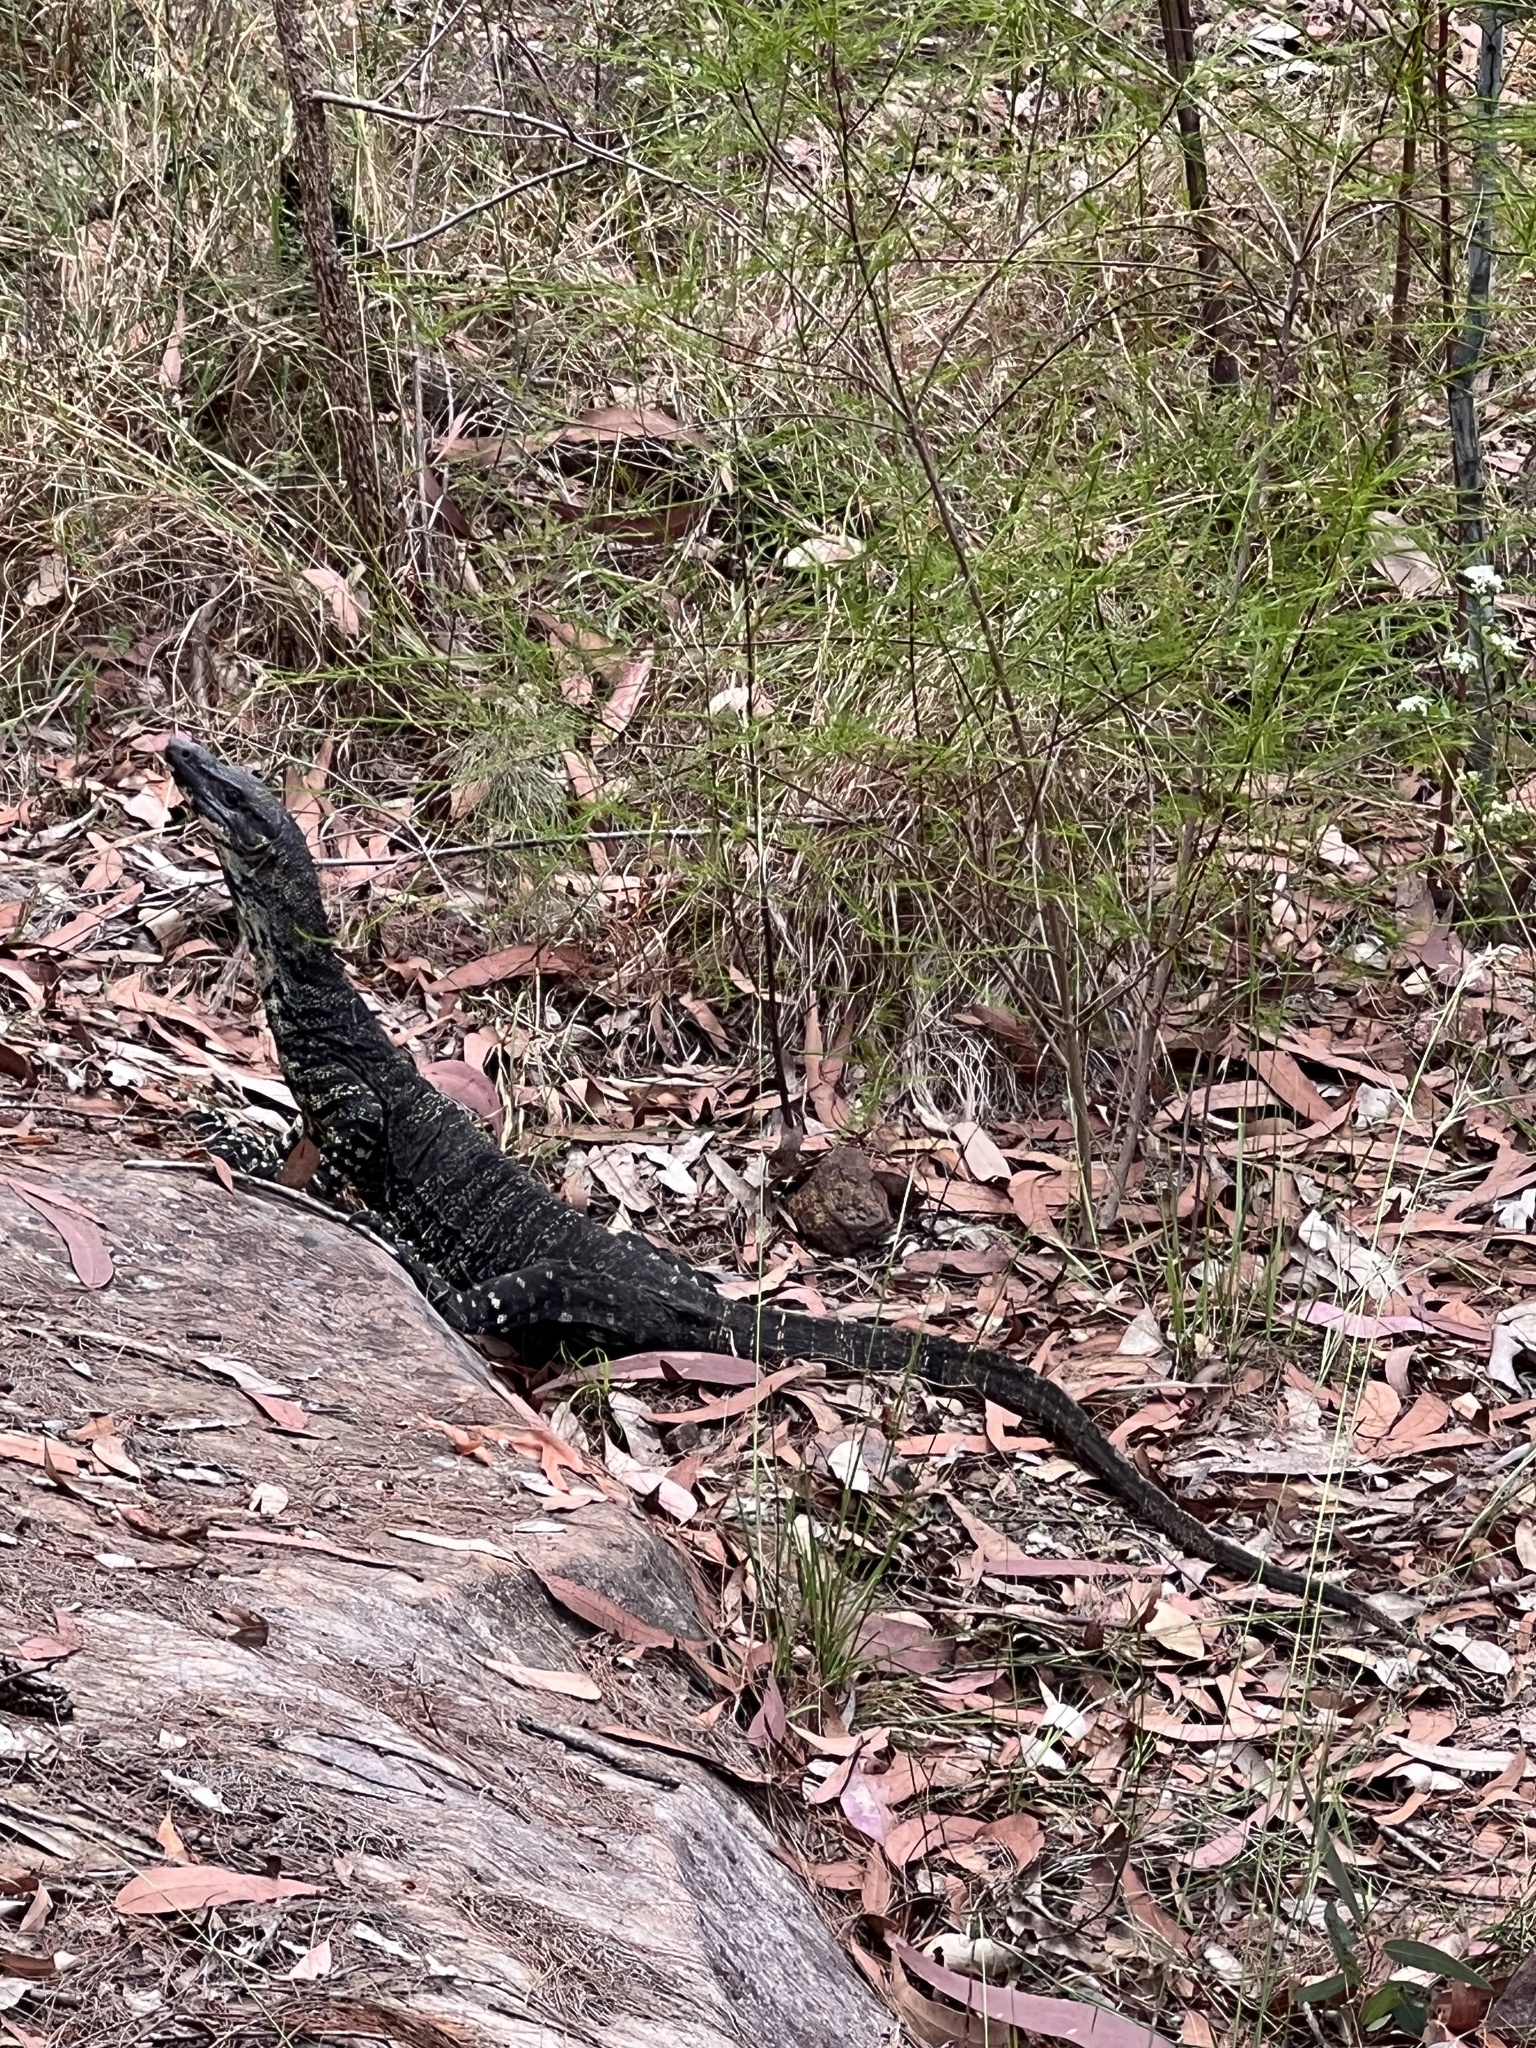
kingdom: Animalia
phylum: Chordata
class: Squamata
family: Varanidae
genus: Varanus
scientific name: Varanus varius
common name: Lace monitor
